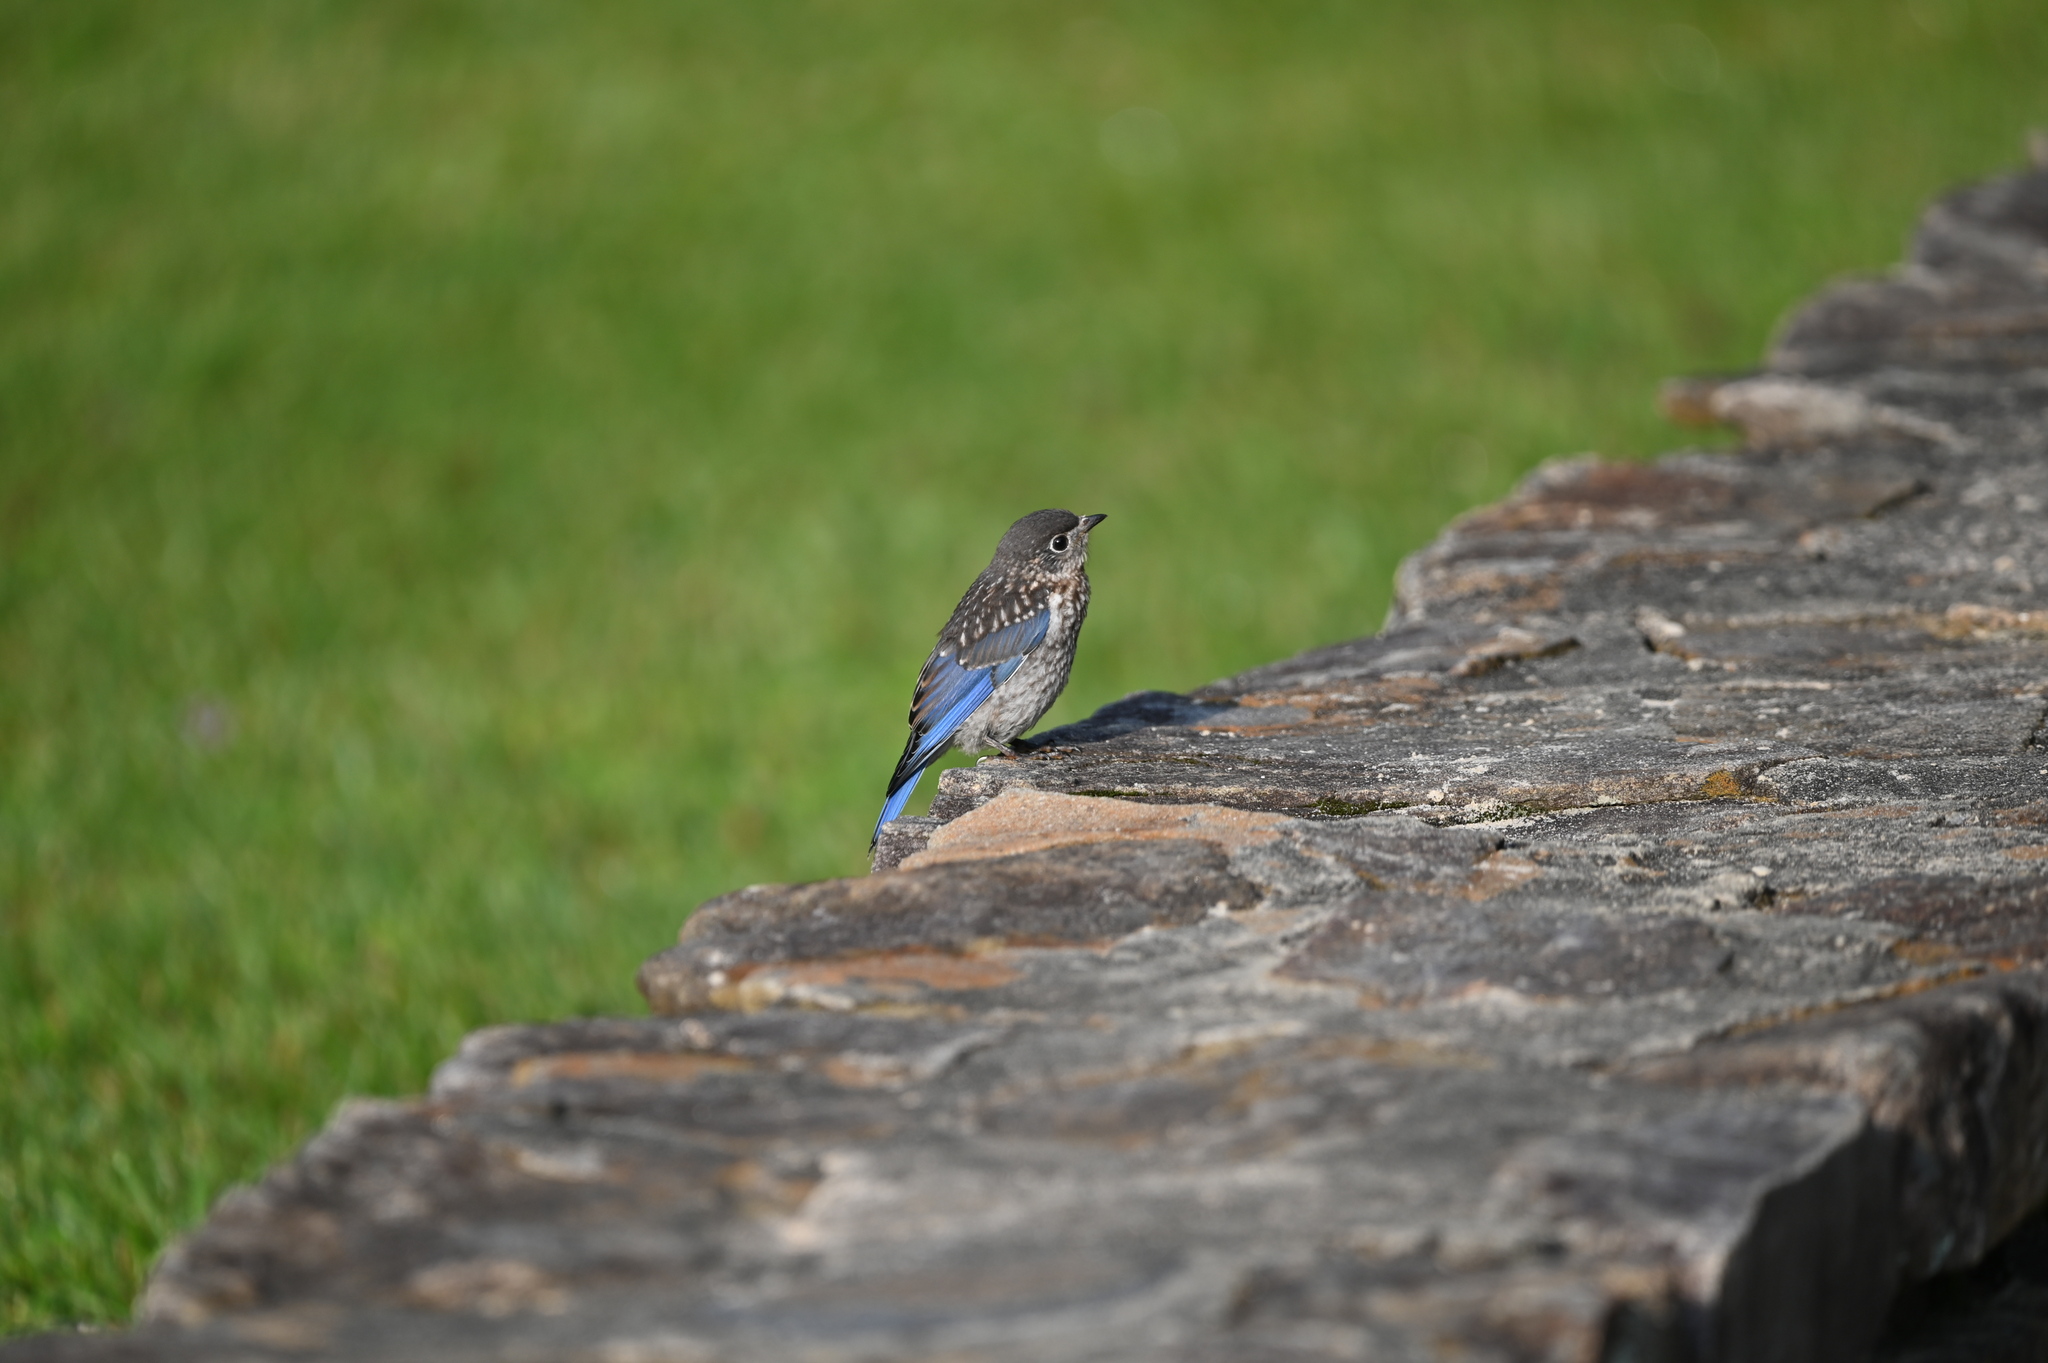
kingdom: Animalia
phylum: Chordata
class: Aves
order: Passeriformes
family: Turdidae
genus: Sialia
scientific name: Sialia sialis
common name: Eastern bluebird
